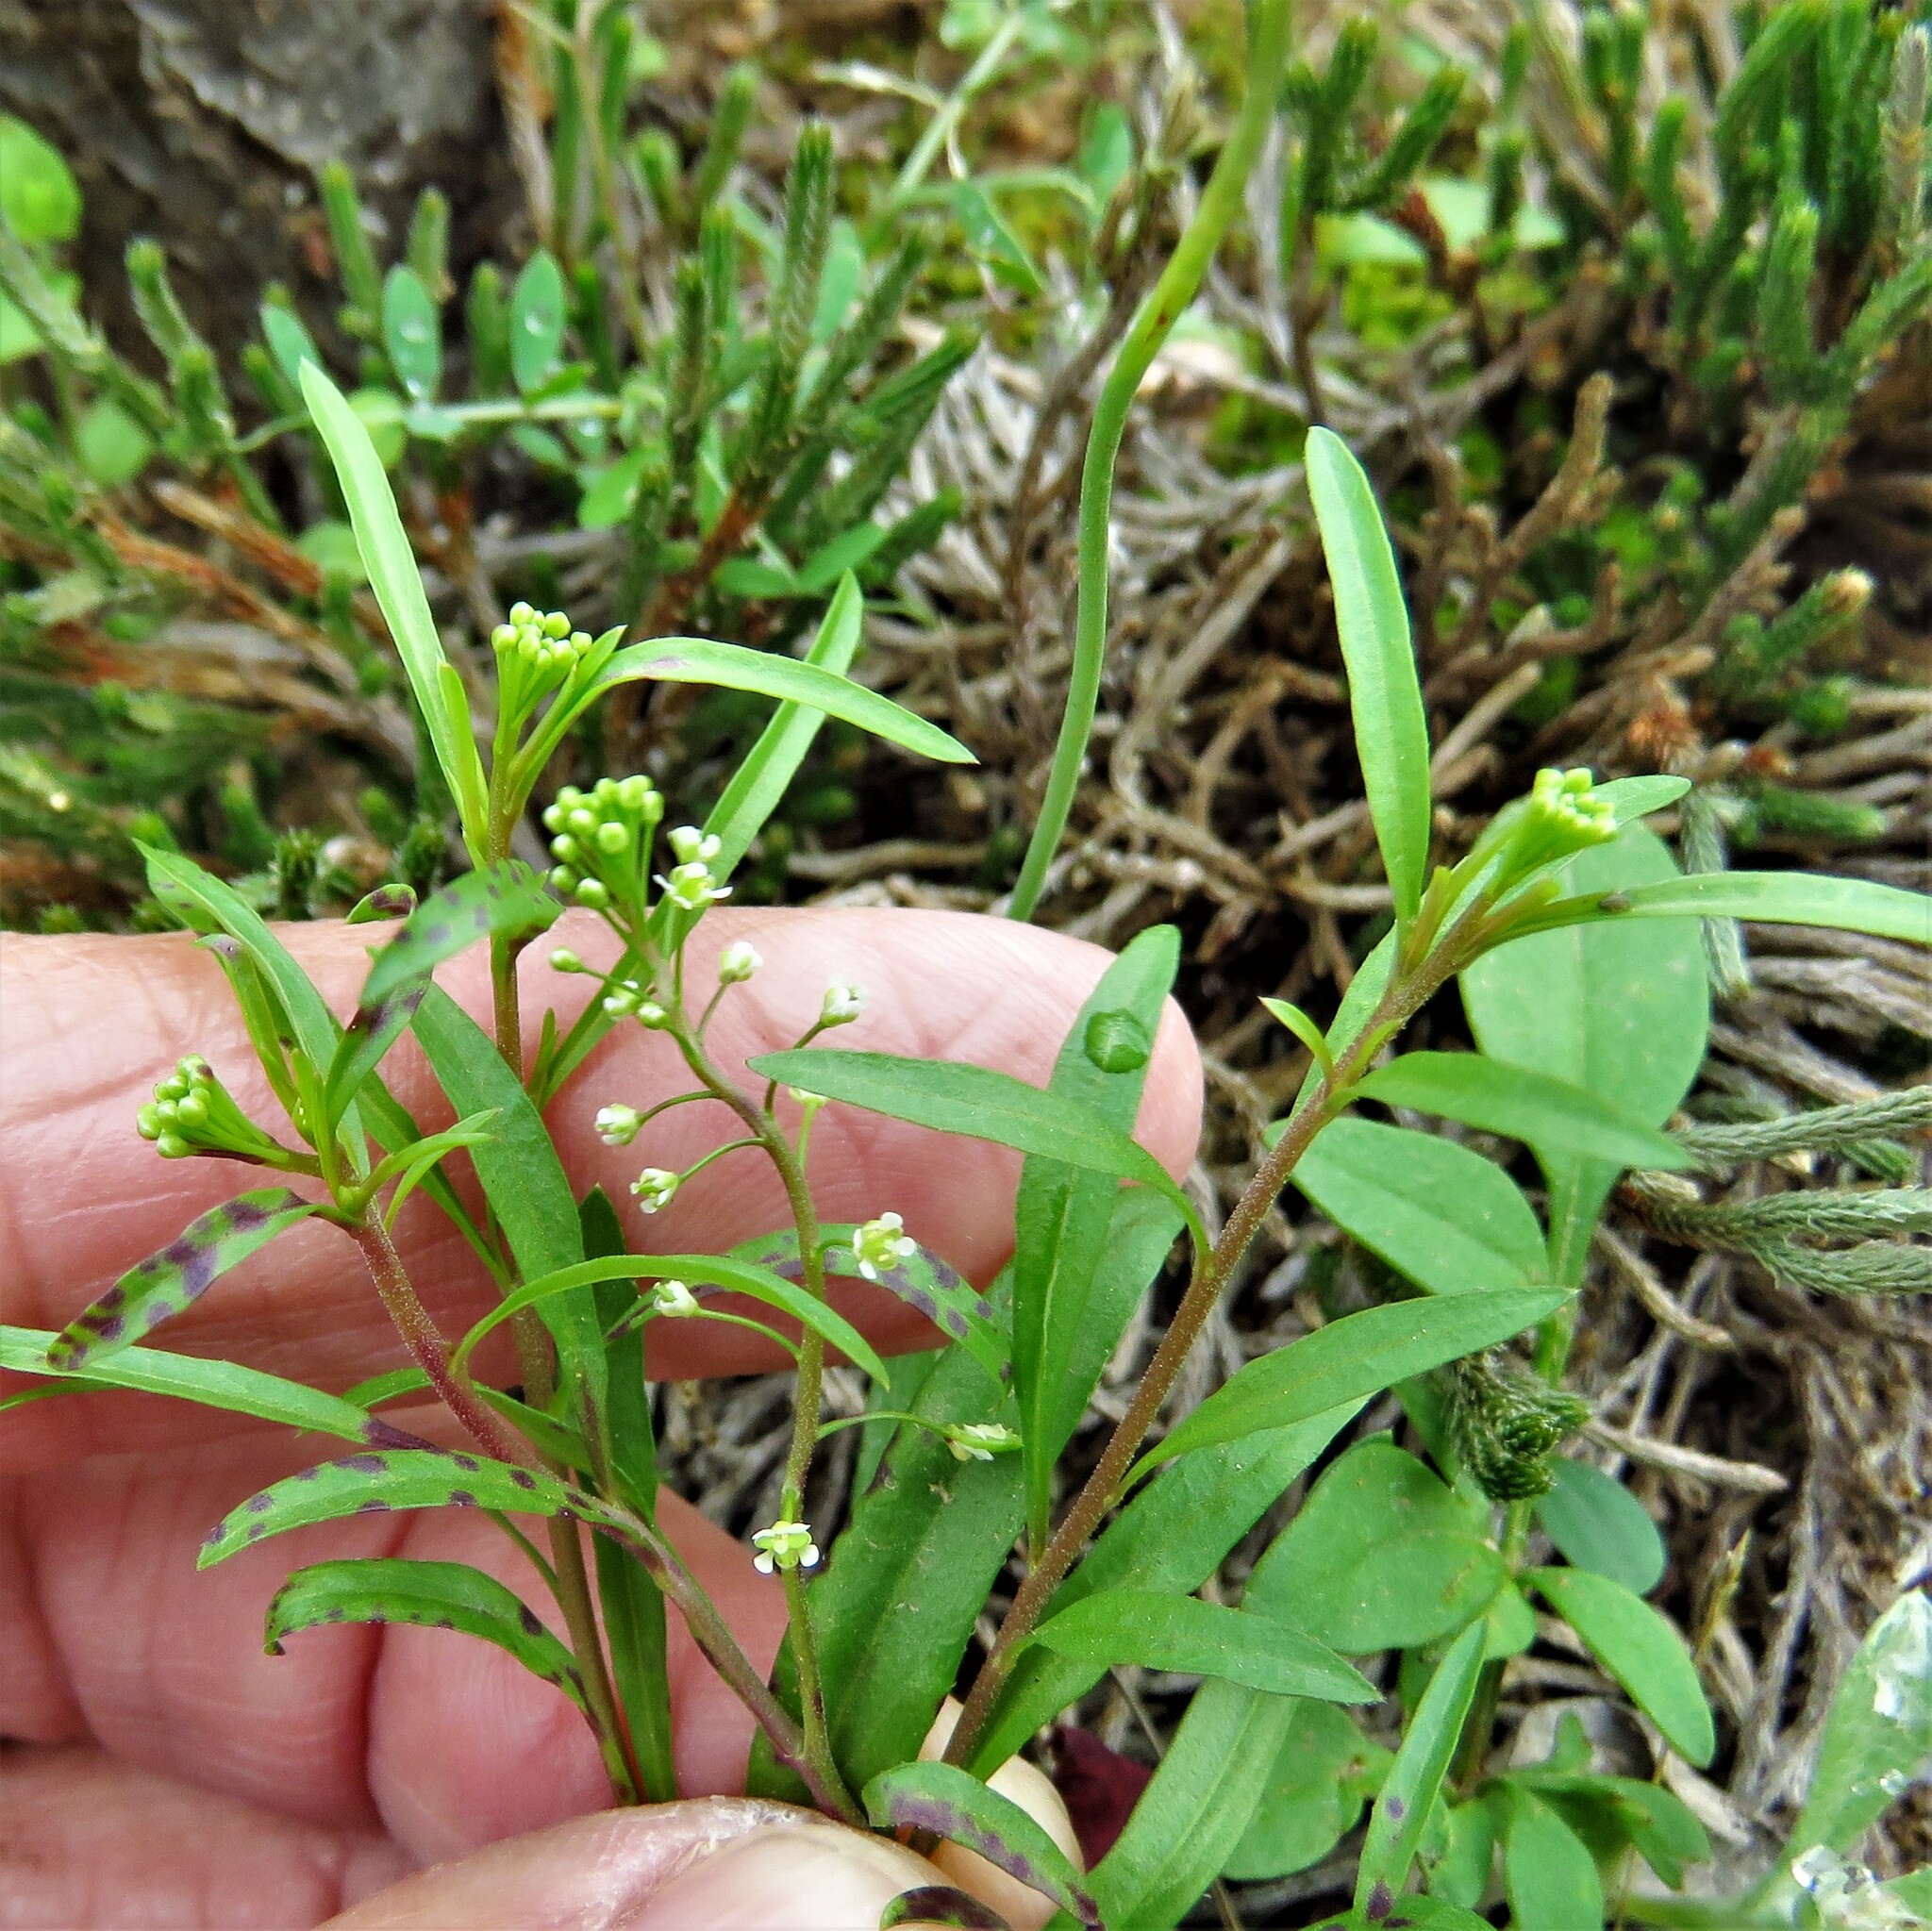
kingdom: Plantae
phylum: Tracheophyta
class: Magnoliopsida
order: Brassicales
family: Brassicaceae
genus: Lepidium
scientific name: Lepidium virginicum
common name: Least pepperwort
